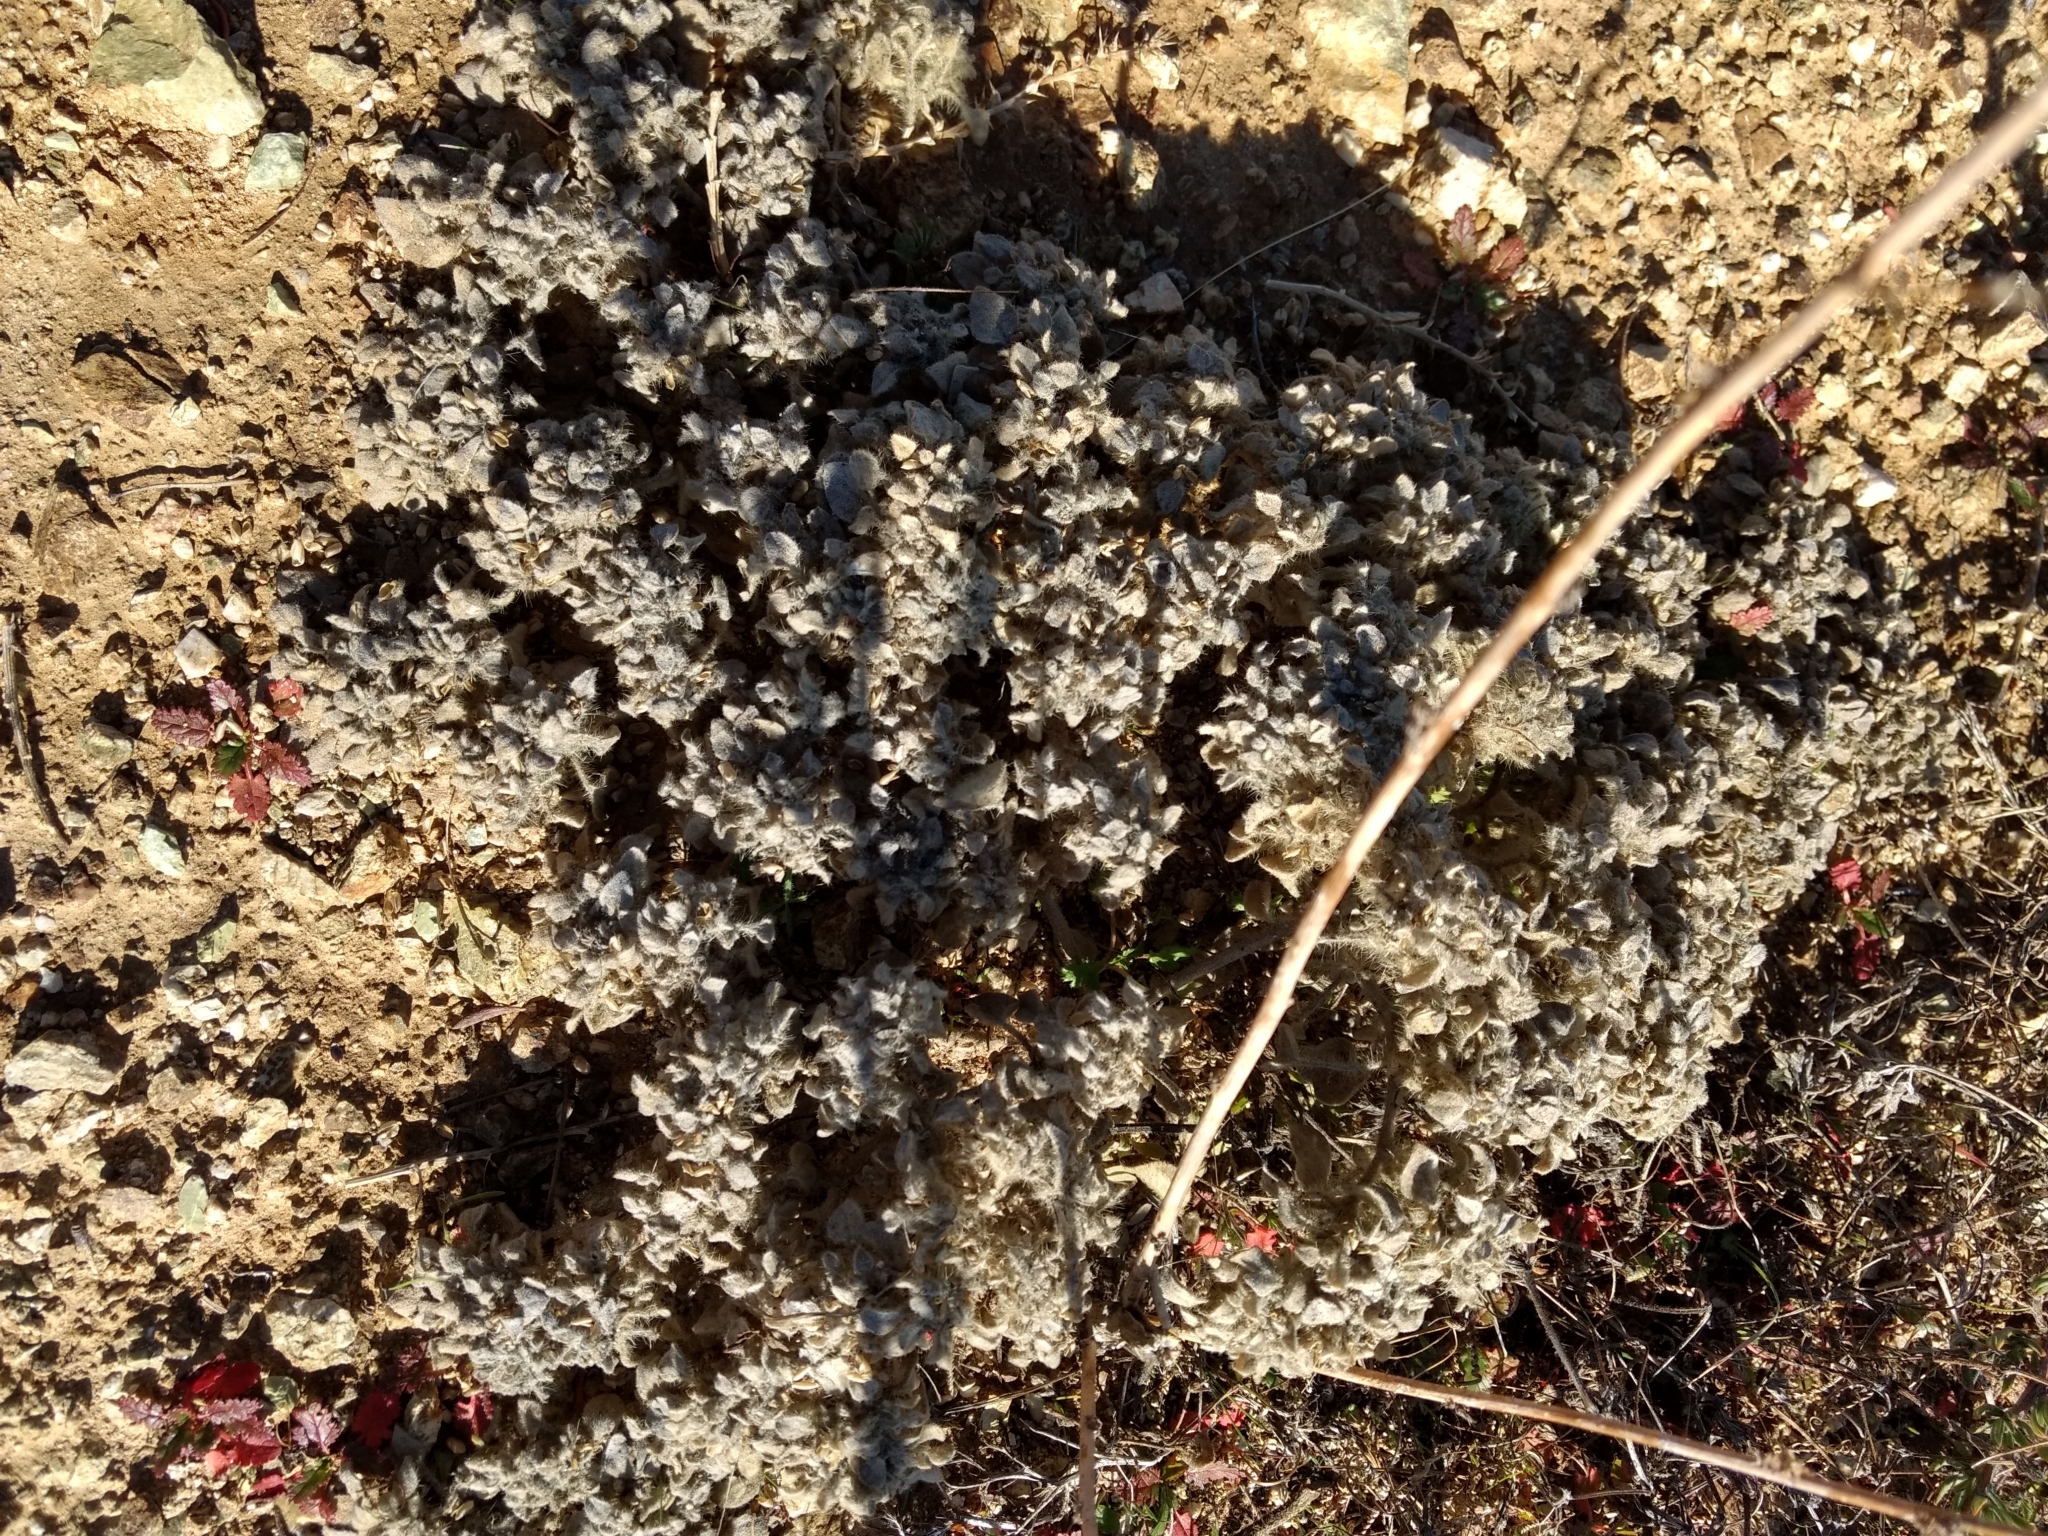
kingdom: Plantae
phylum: Tracheophyta
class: Magnoliopsida
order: Malpighiales
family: Euphorbiaceae
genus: Croton
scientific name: Croton setiger
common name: Dove weed
